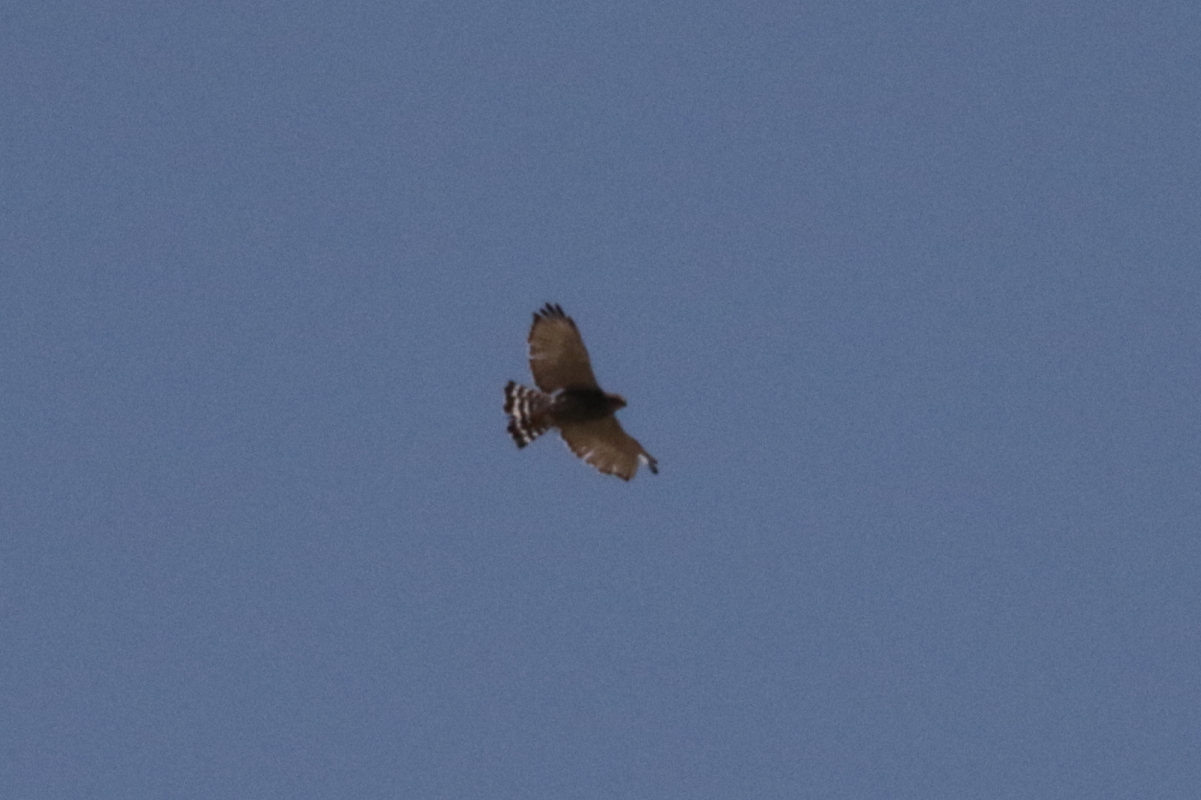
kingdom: Animalia
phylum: Chordata
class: Aves
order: Accipitriformes
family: Accipitridae
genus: Buteo
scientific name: Buteo nitidus
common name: Grey-lined hawk
